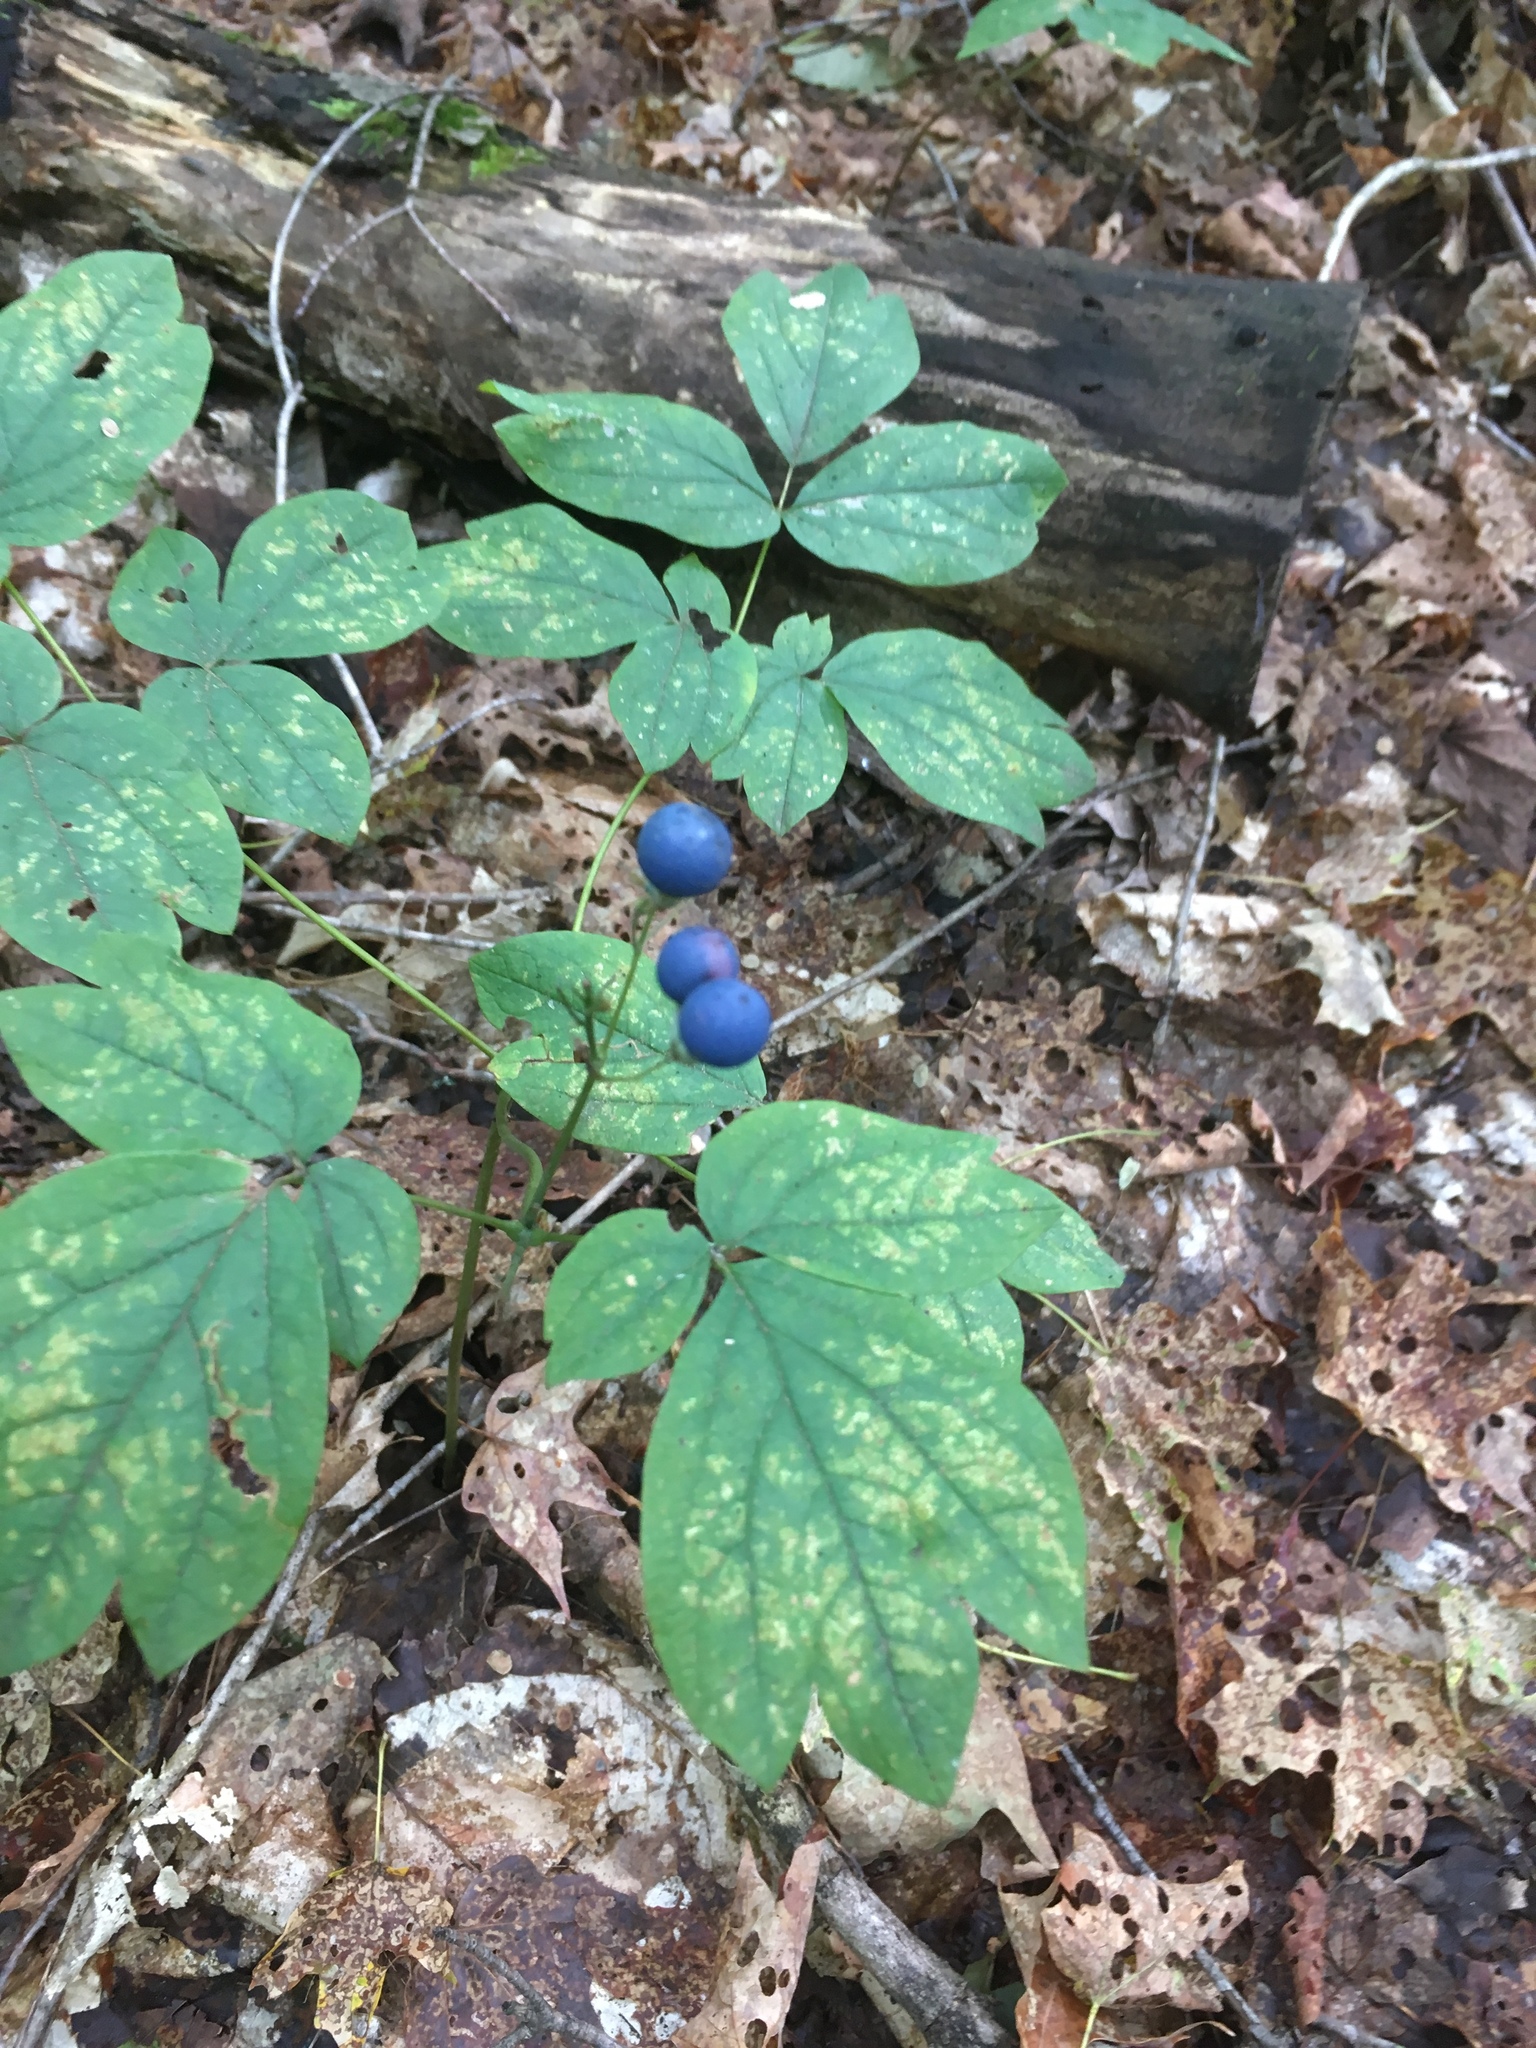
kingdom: Plantae
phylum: Tracheophyta
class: Magnoliopsida
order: Ranunculales
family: Berberidaceae
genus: Caulophyllum
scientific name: Caulophyllum
